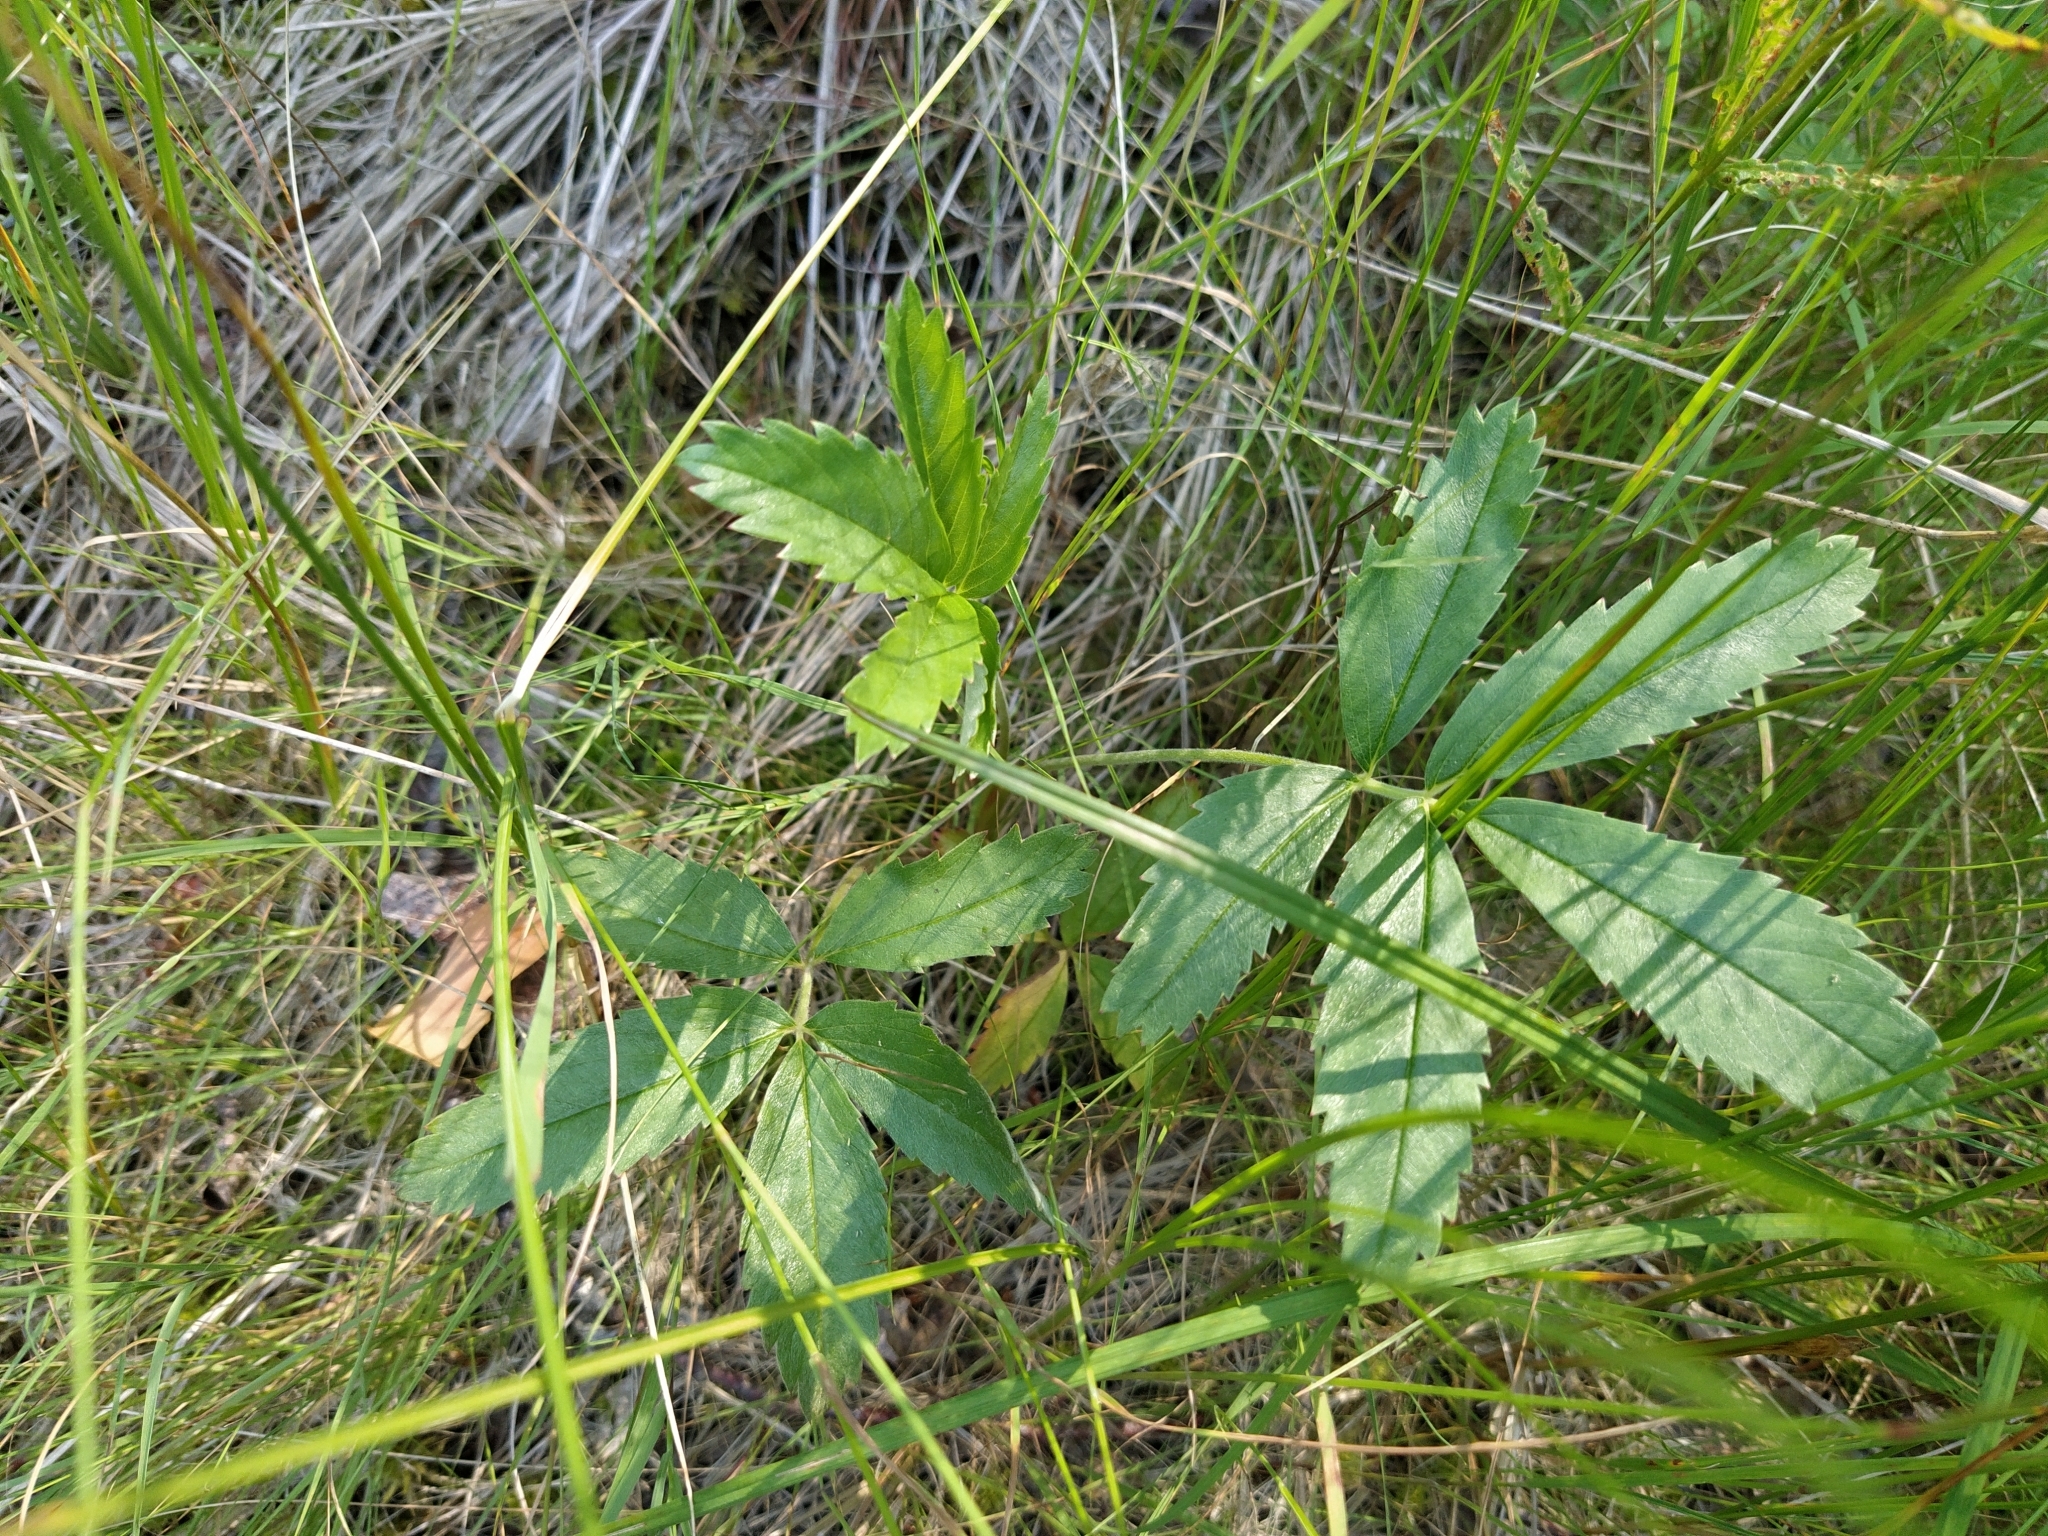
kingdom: Plantae
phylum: Tracheophyta
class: Magnoliopsida
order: Rosales
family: Rosaceae
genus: Comarum
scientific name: Comarum palustre
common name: Marsh cinquefoil
